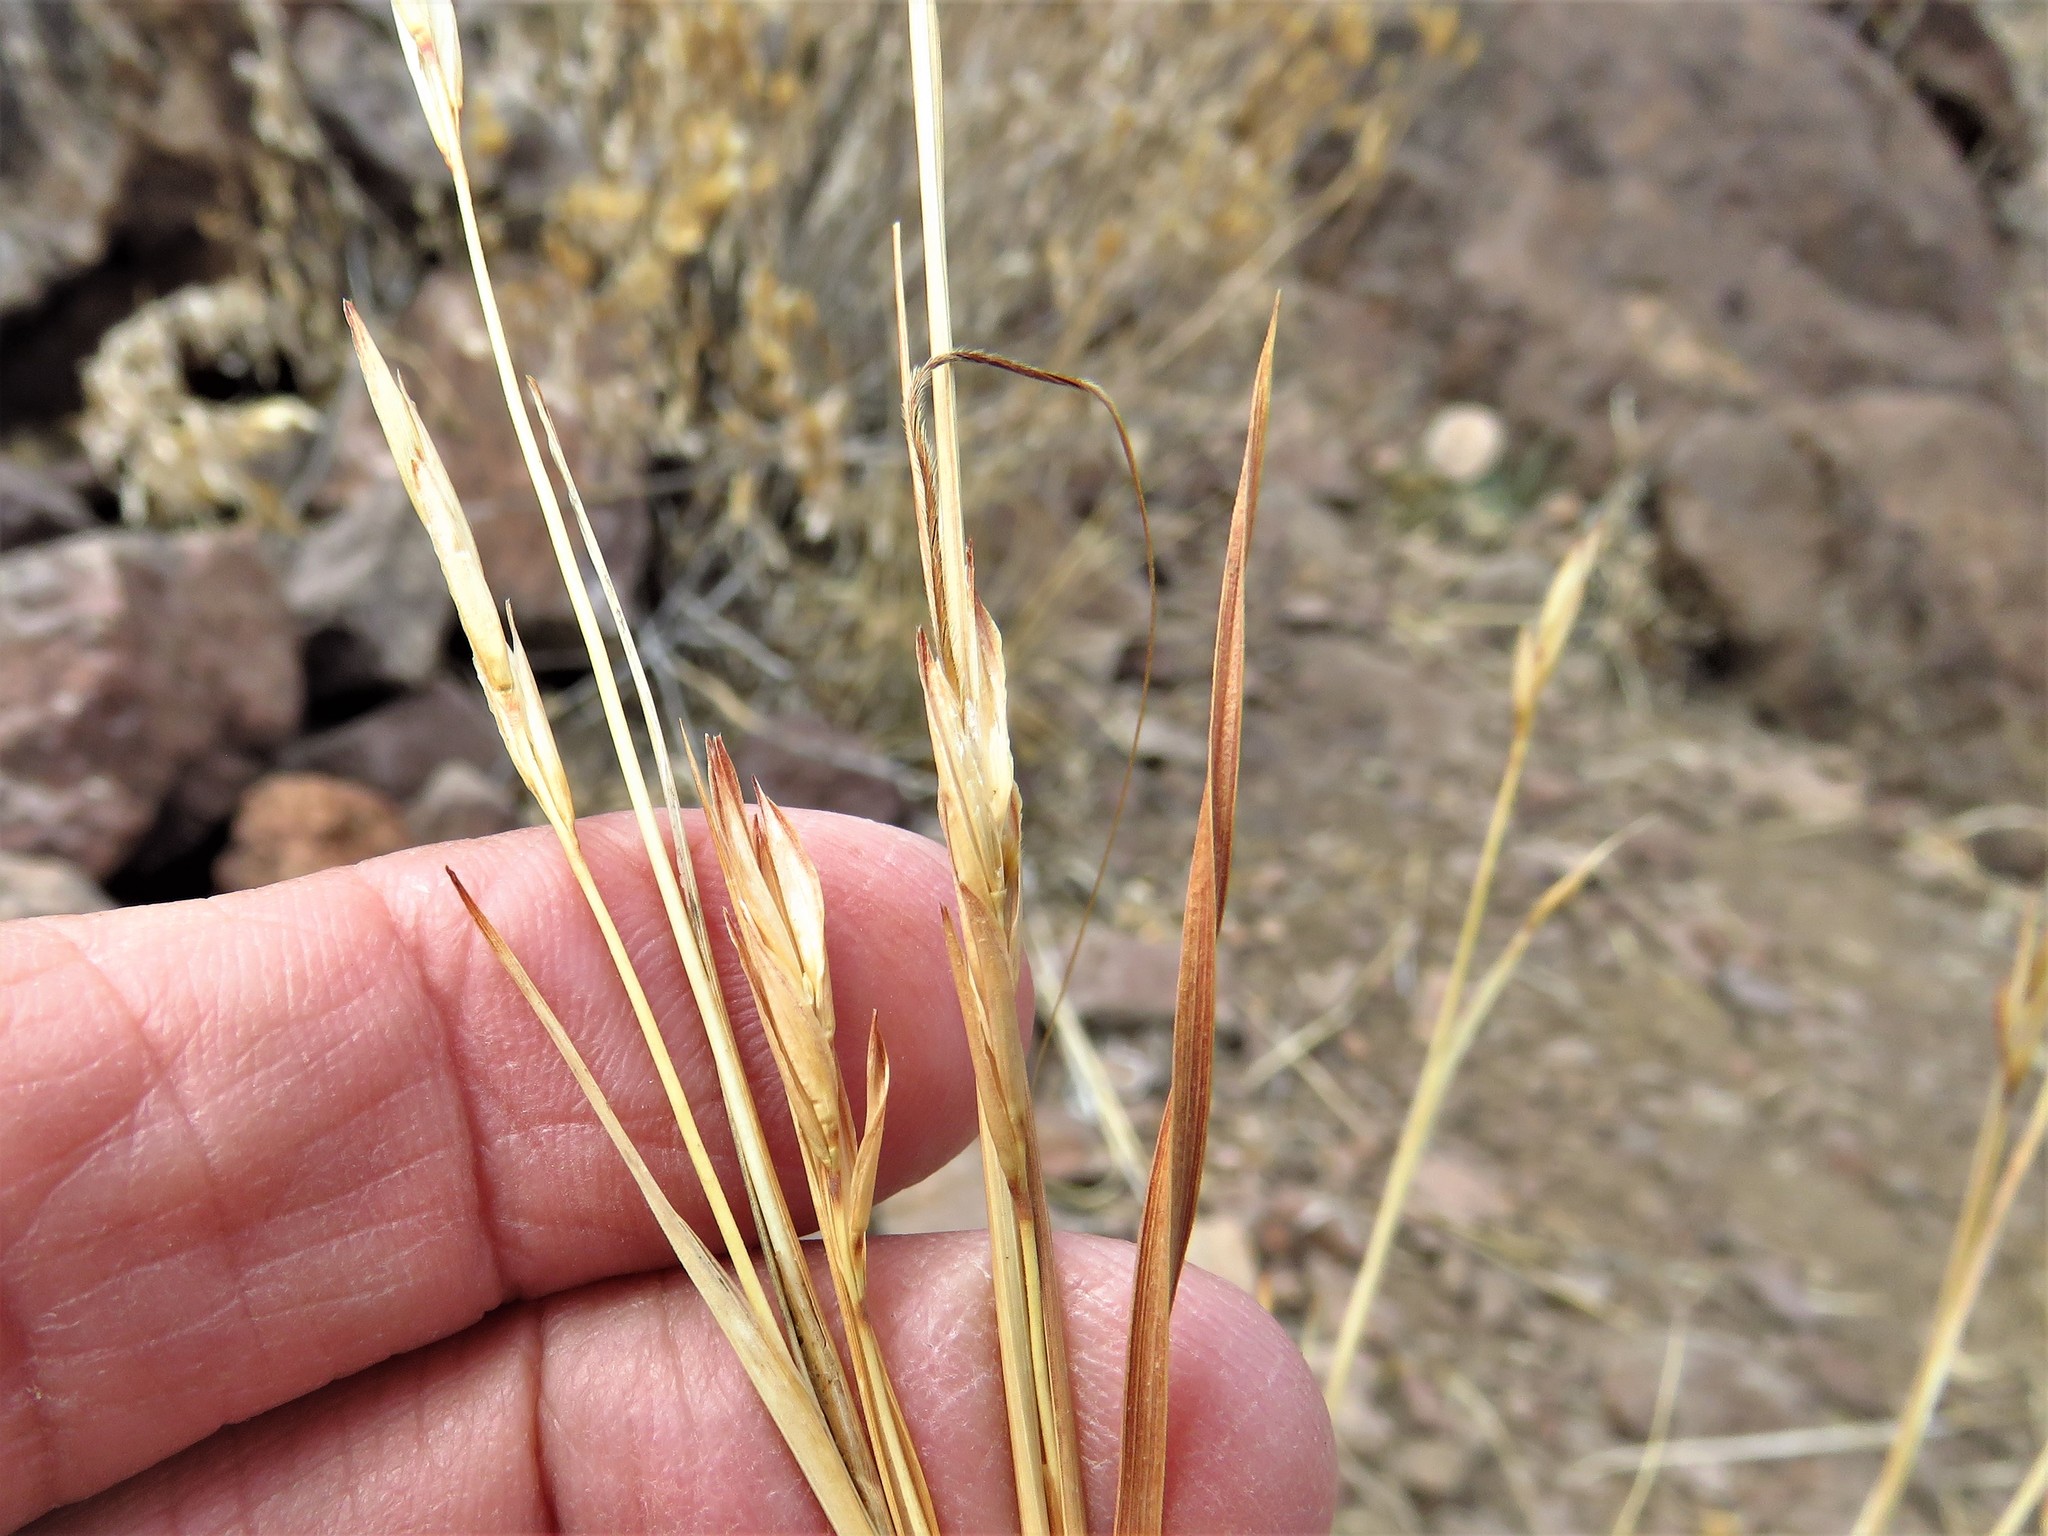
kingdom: Plantae
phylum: Tracheophyta
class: Liliopsida
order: Poales
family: Poaceae
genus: Heteropogon
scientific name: Heteropogon contortus
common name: Tanglehead
